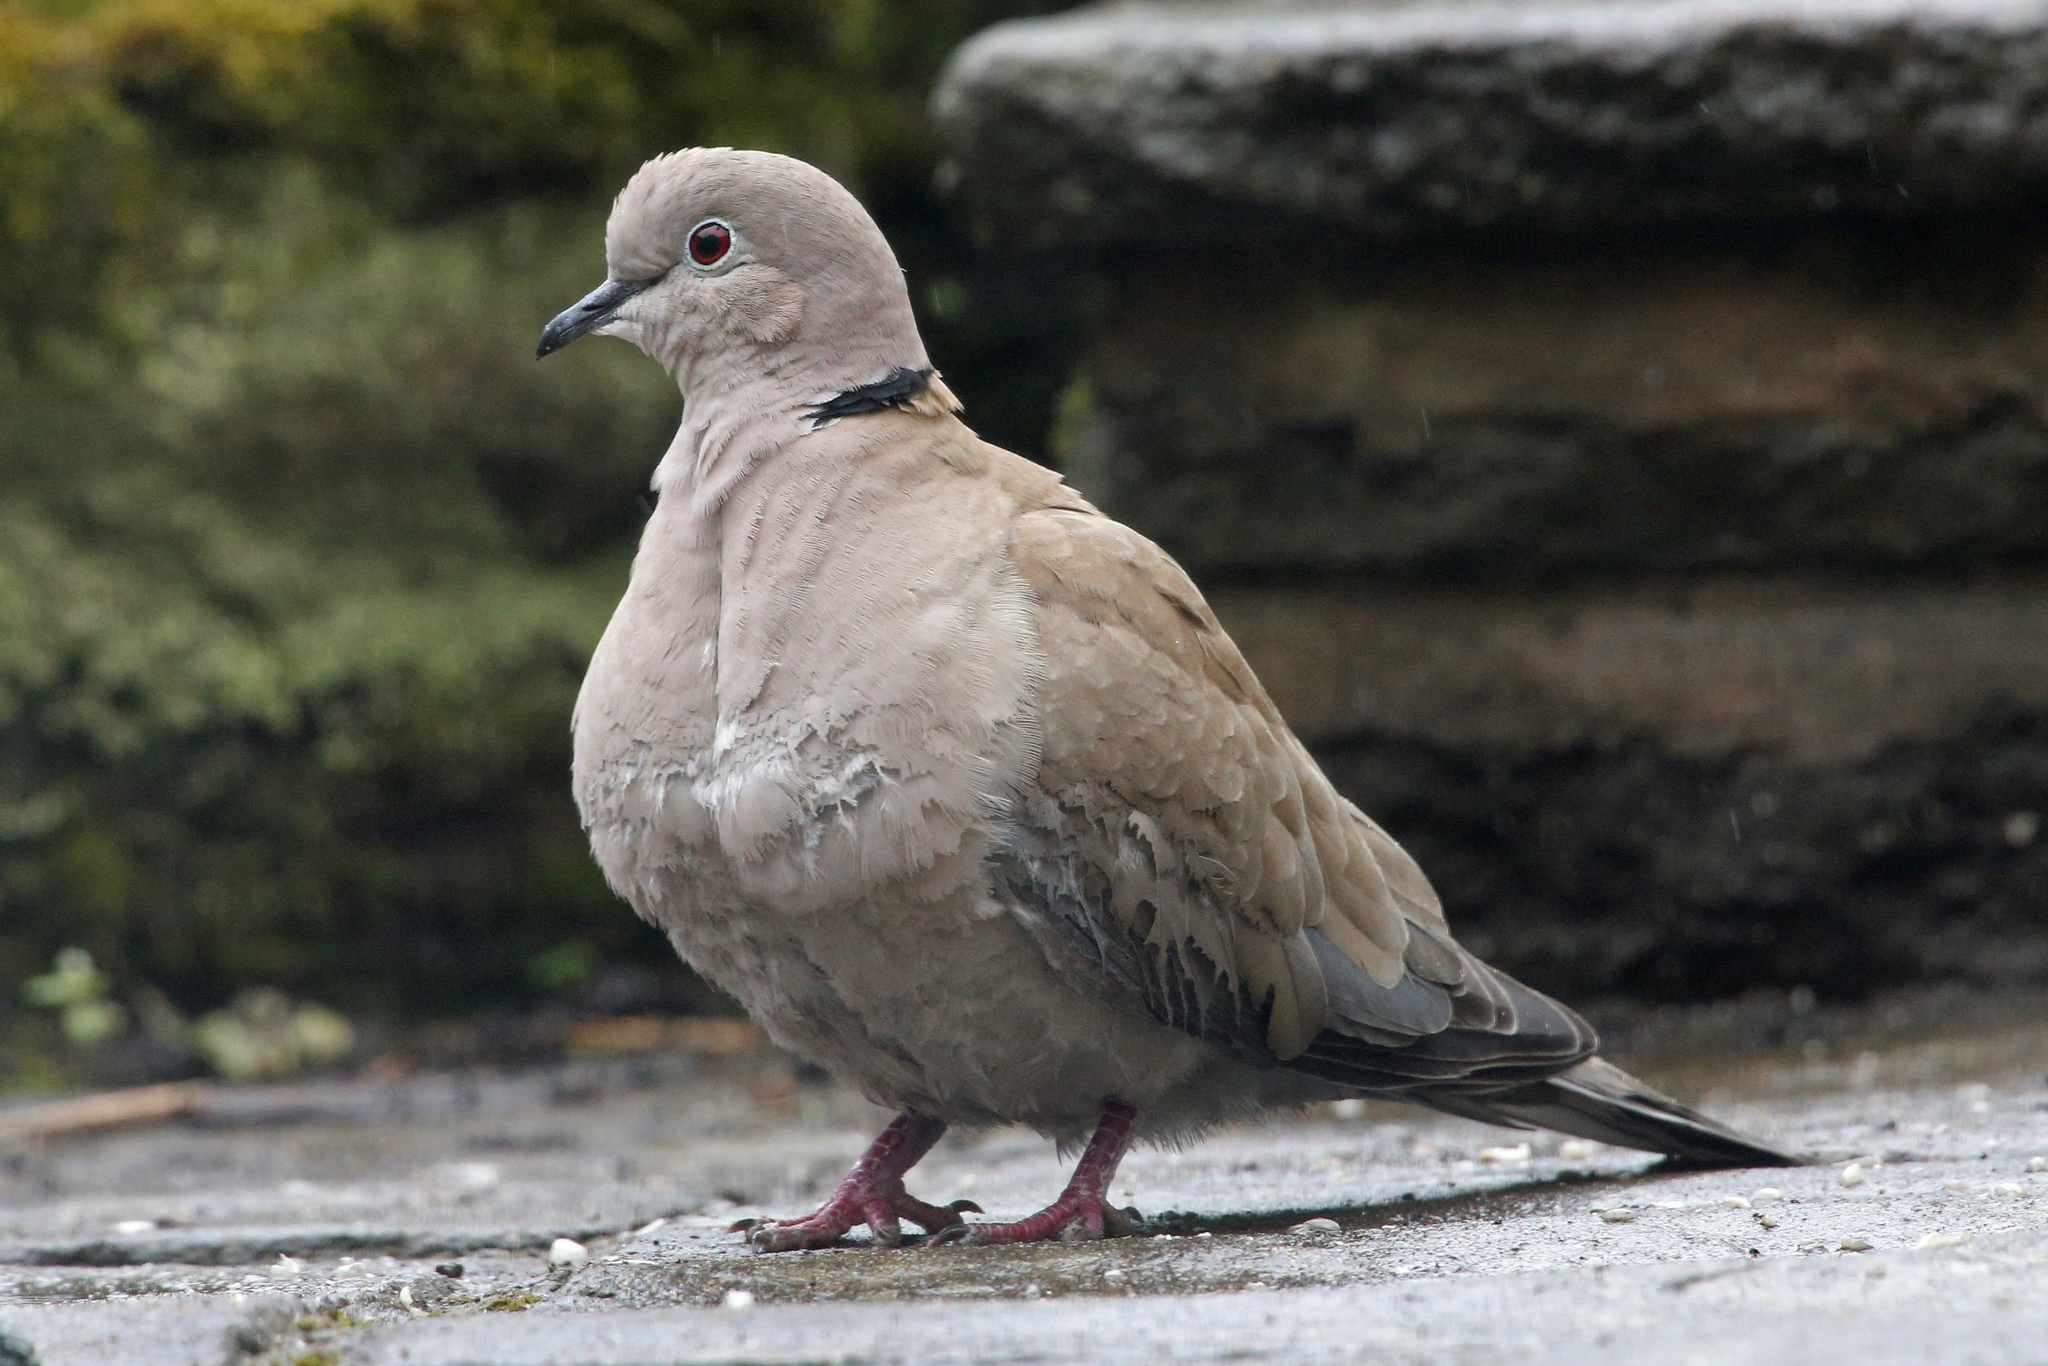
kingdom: Animalia
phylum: Chordata
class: Aves
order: Columbiformes
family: Columbidae
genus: Streptopelia
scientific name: Streptopelia decaocto
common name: Eurasian collared dove
